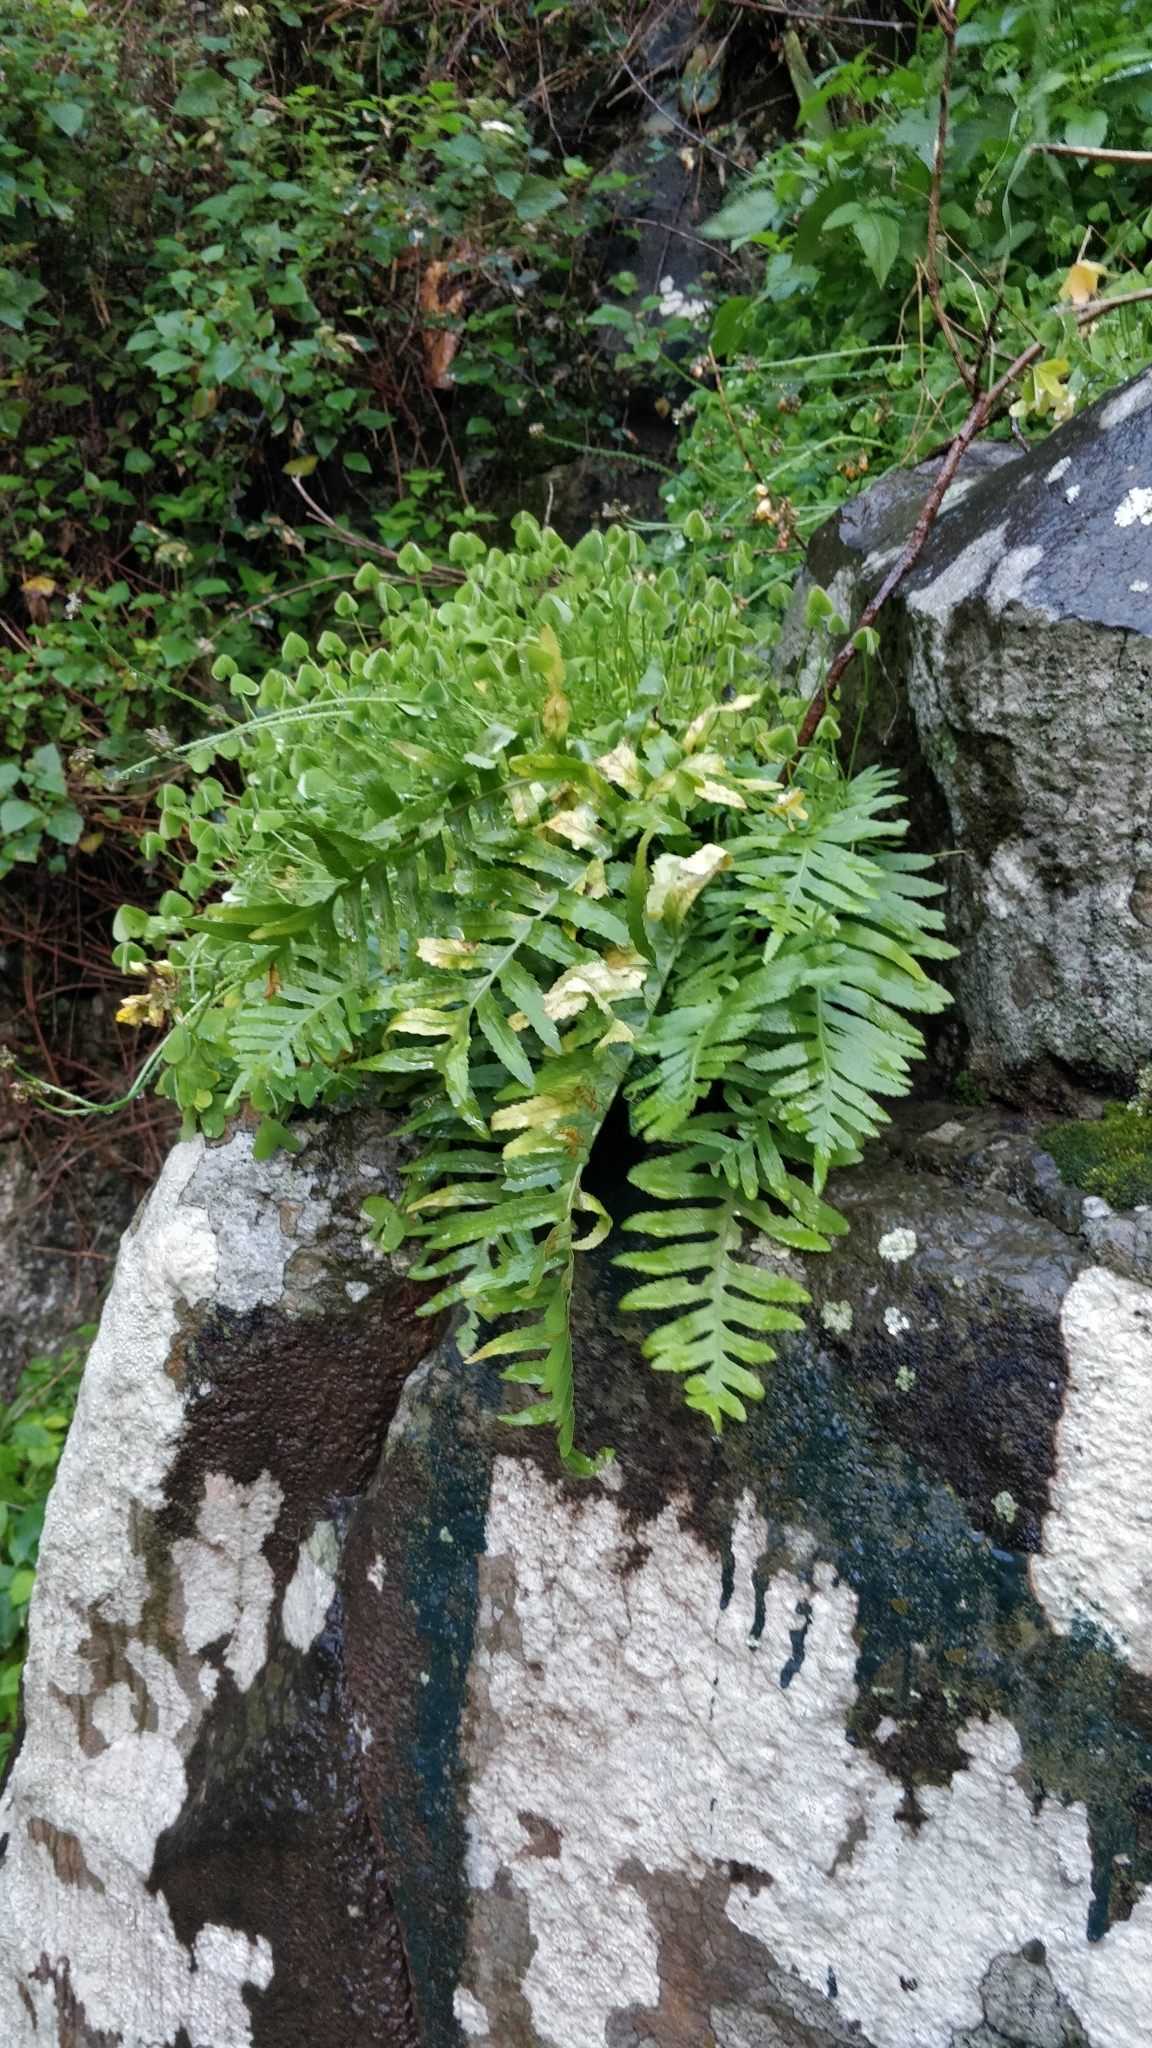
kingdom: Plantae
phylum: Tracheophyta
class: Polypodiopsida
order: Polypodiales
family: Polypodiaceae
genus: Polypodium
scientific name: Polypodium macaronesicum
